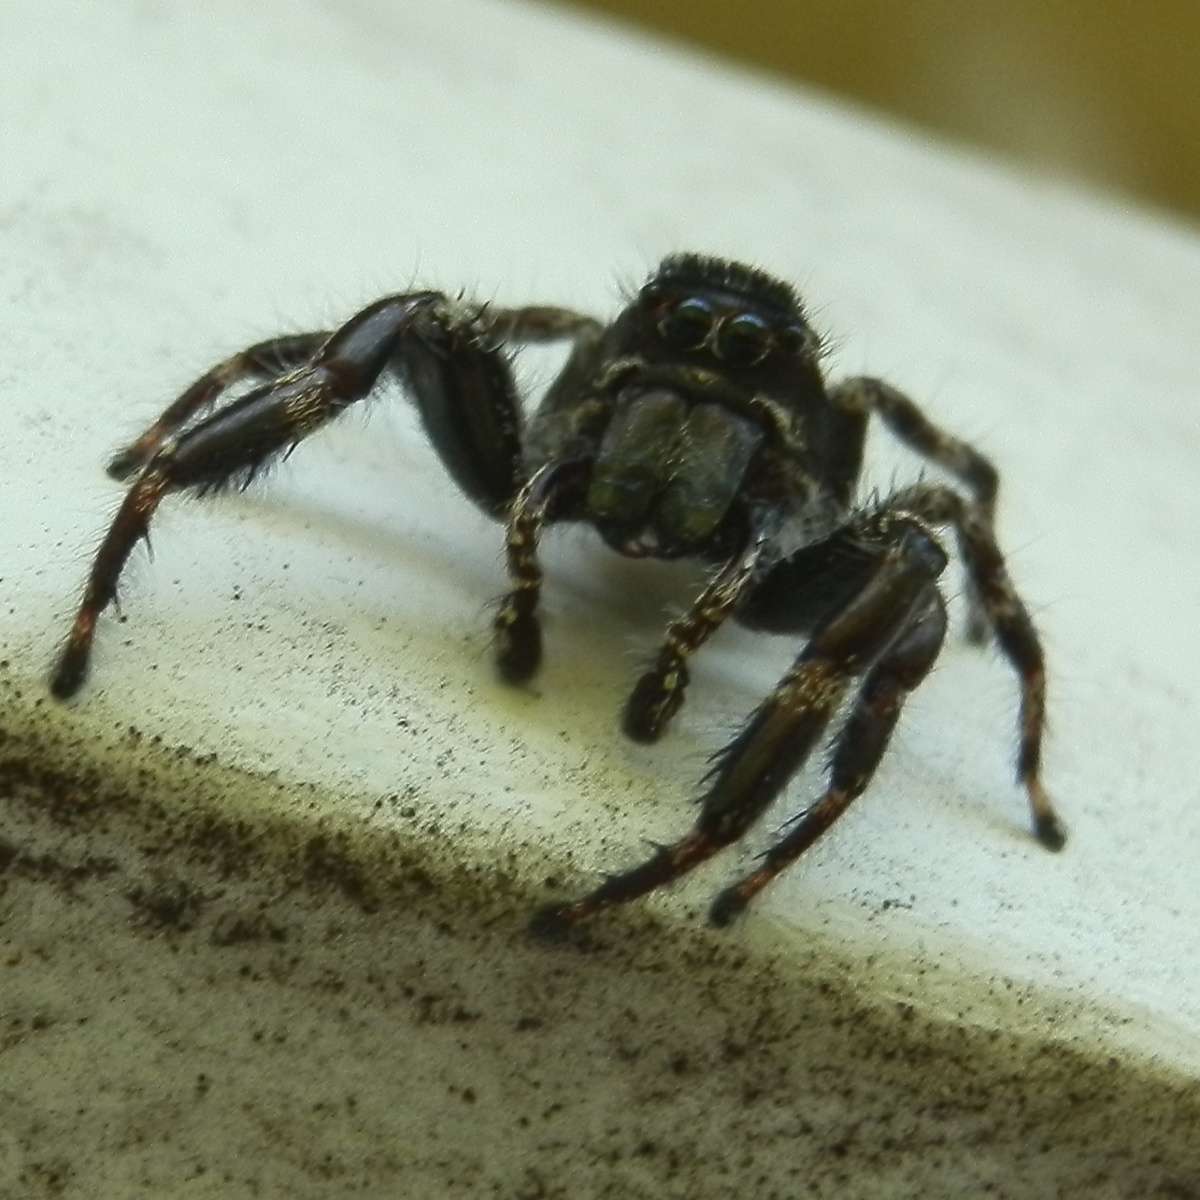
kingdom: Animalia
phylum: Arthropoda
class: Arachnida
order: Araneae
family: Salticidae
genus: Sandalodes
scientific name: Sandalodes superbus
